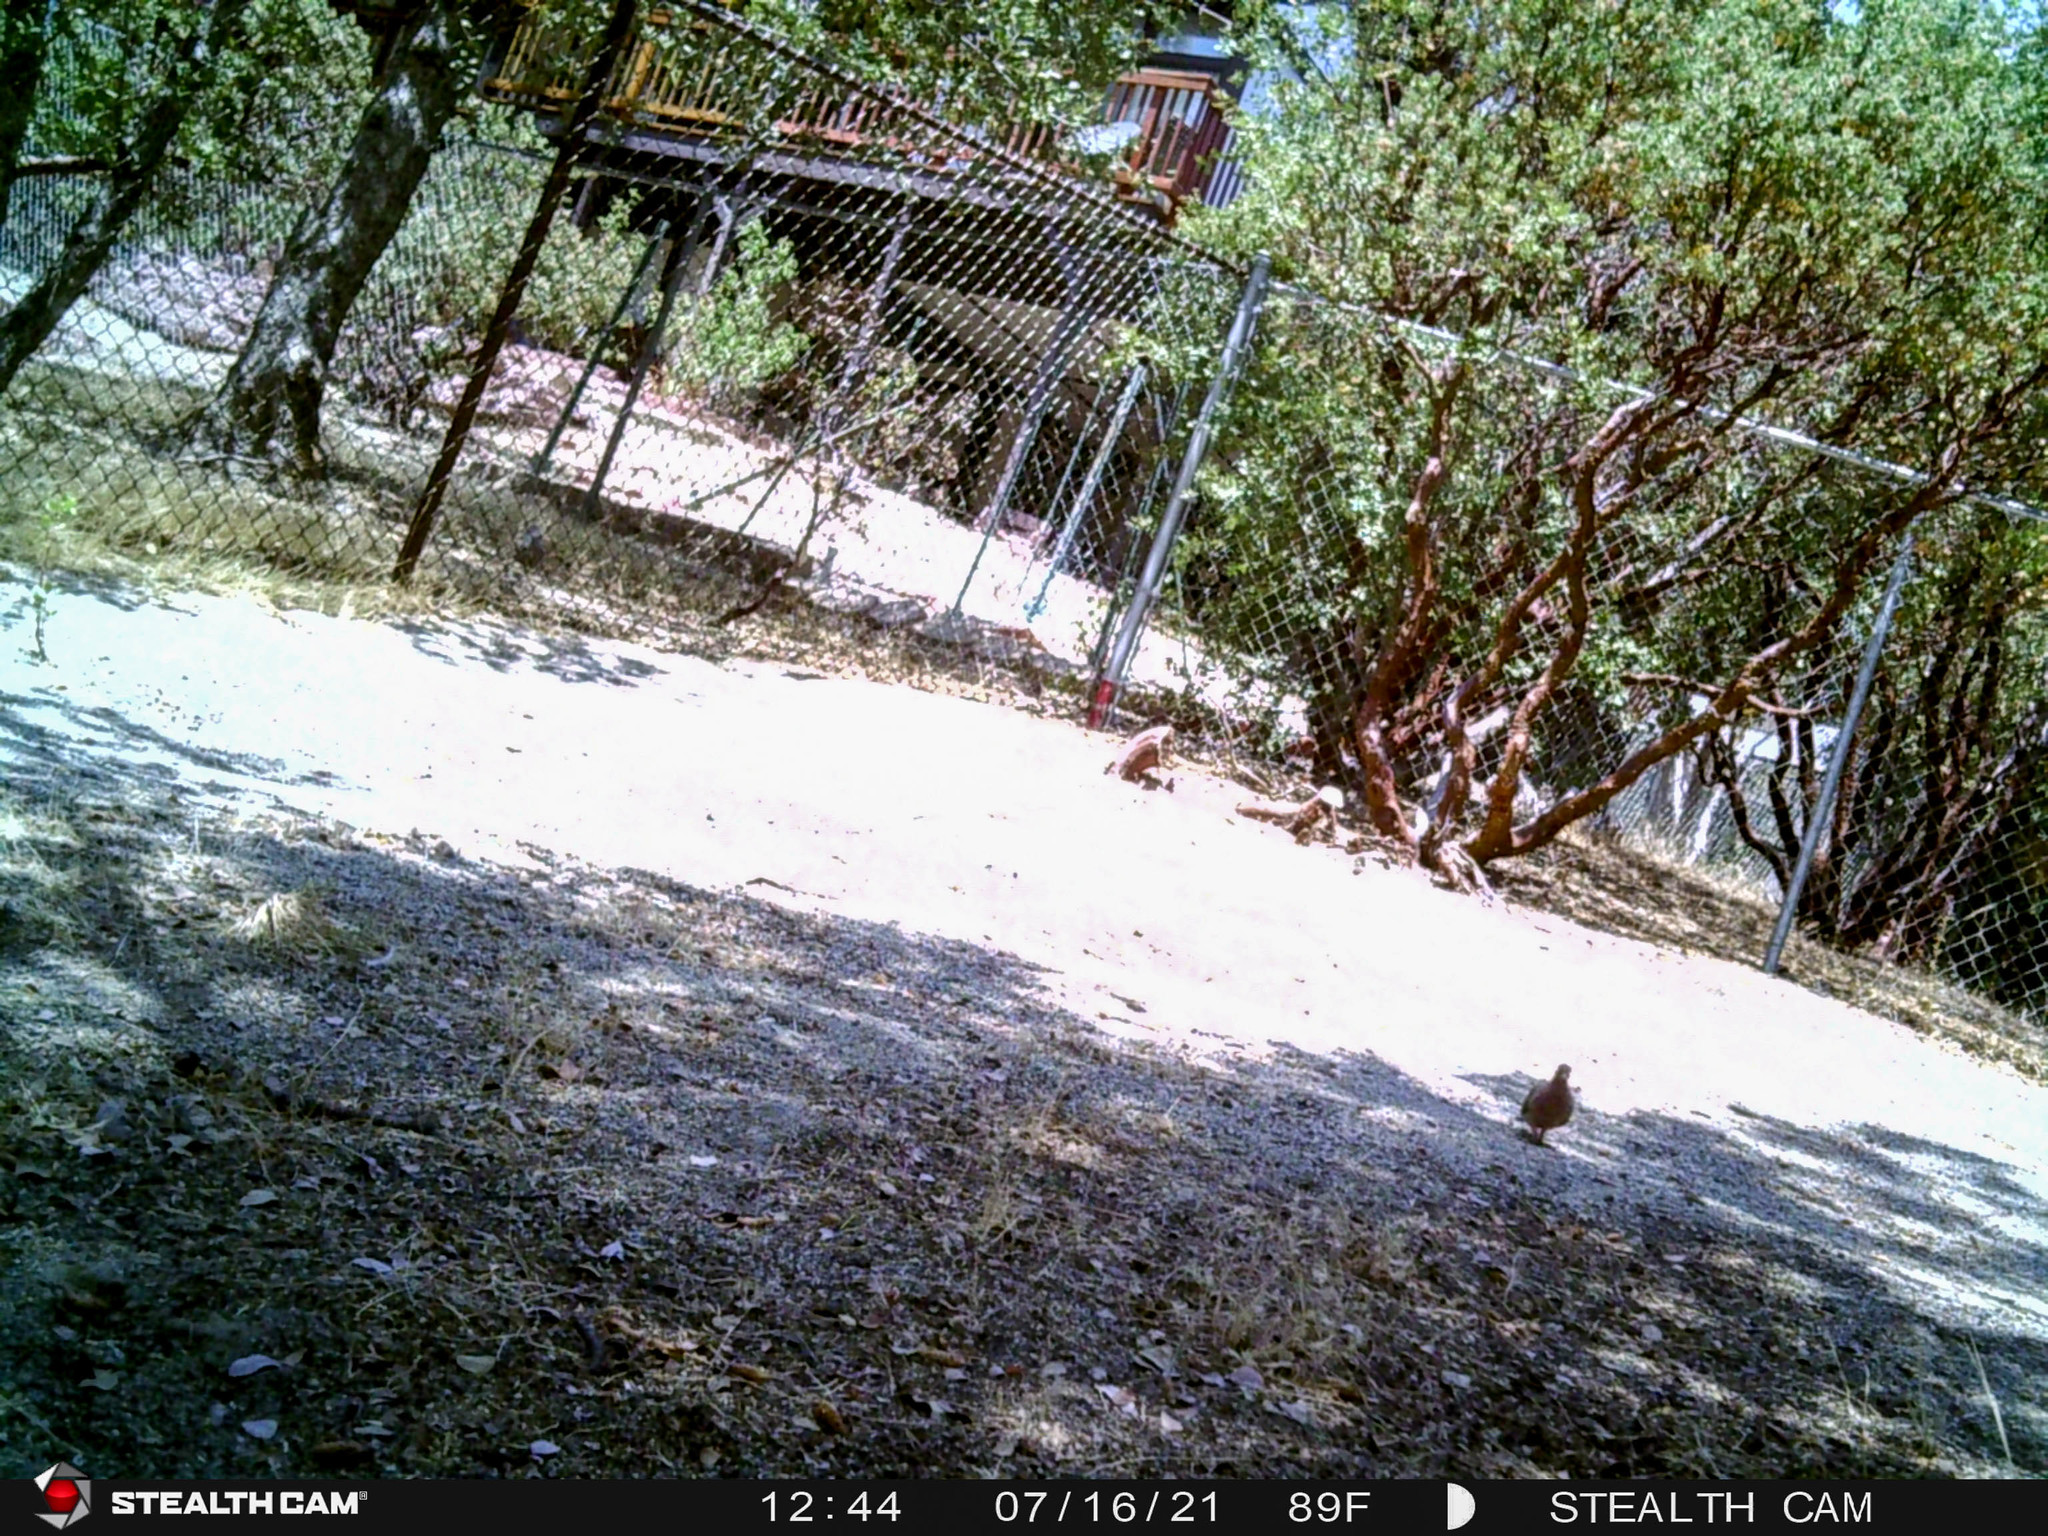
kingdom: Animalia
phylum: Chordata
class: Aves
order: Columbiformes
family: Columbidae
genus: Zenaida
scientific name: Zenaida macroura
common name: Mourning dove
